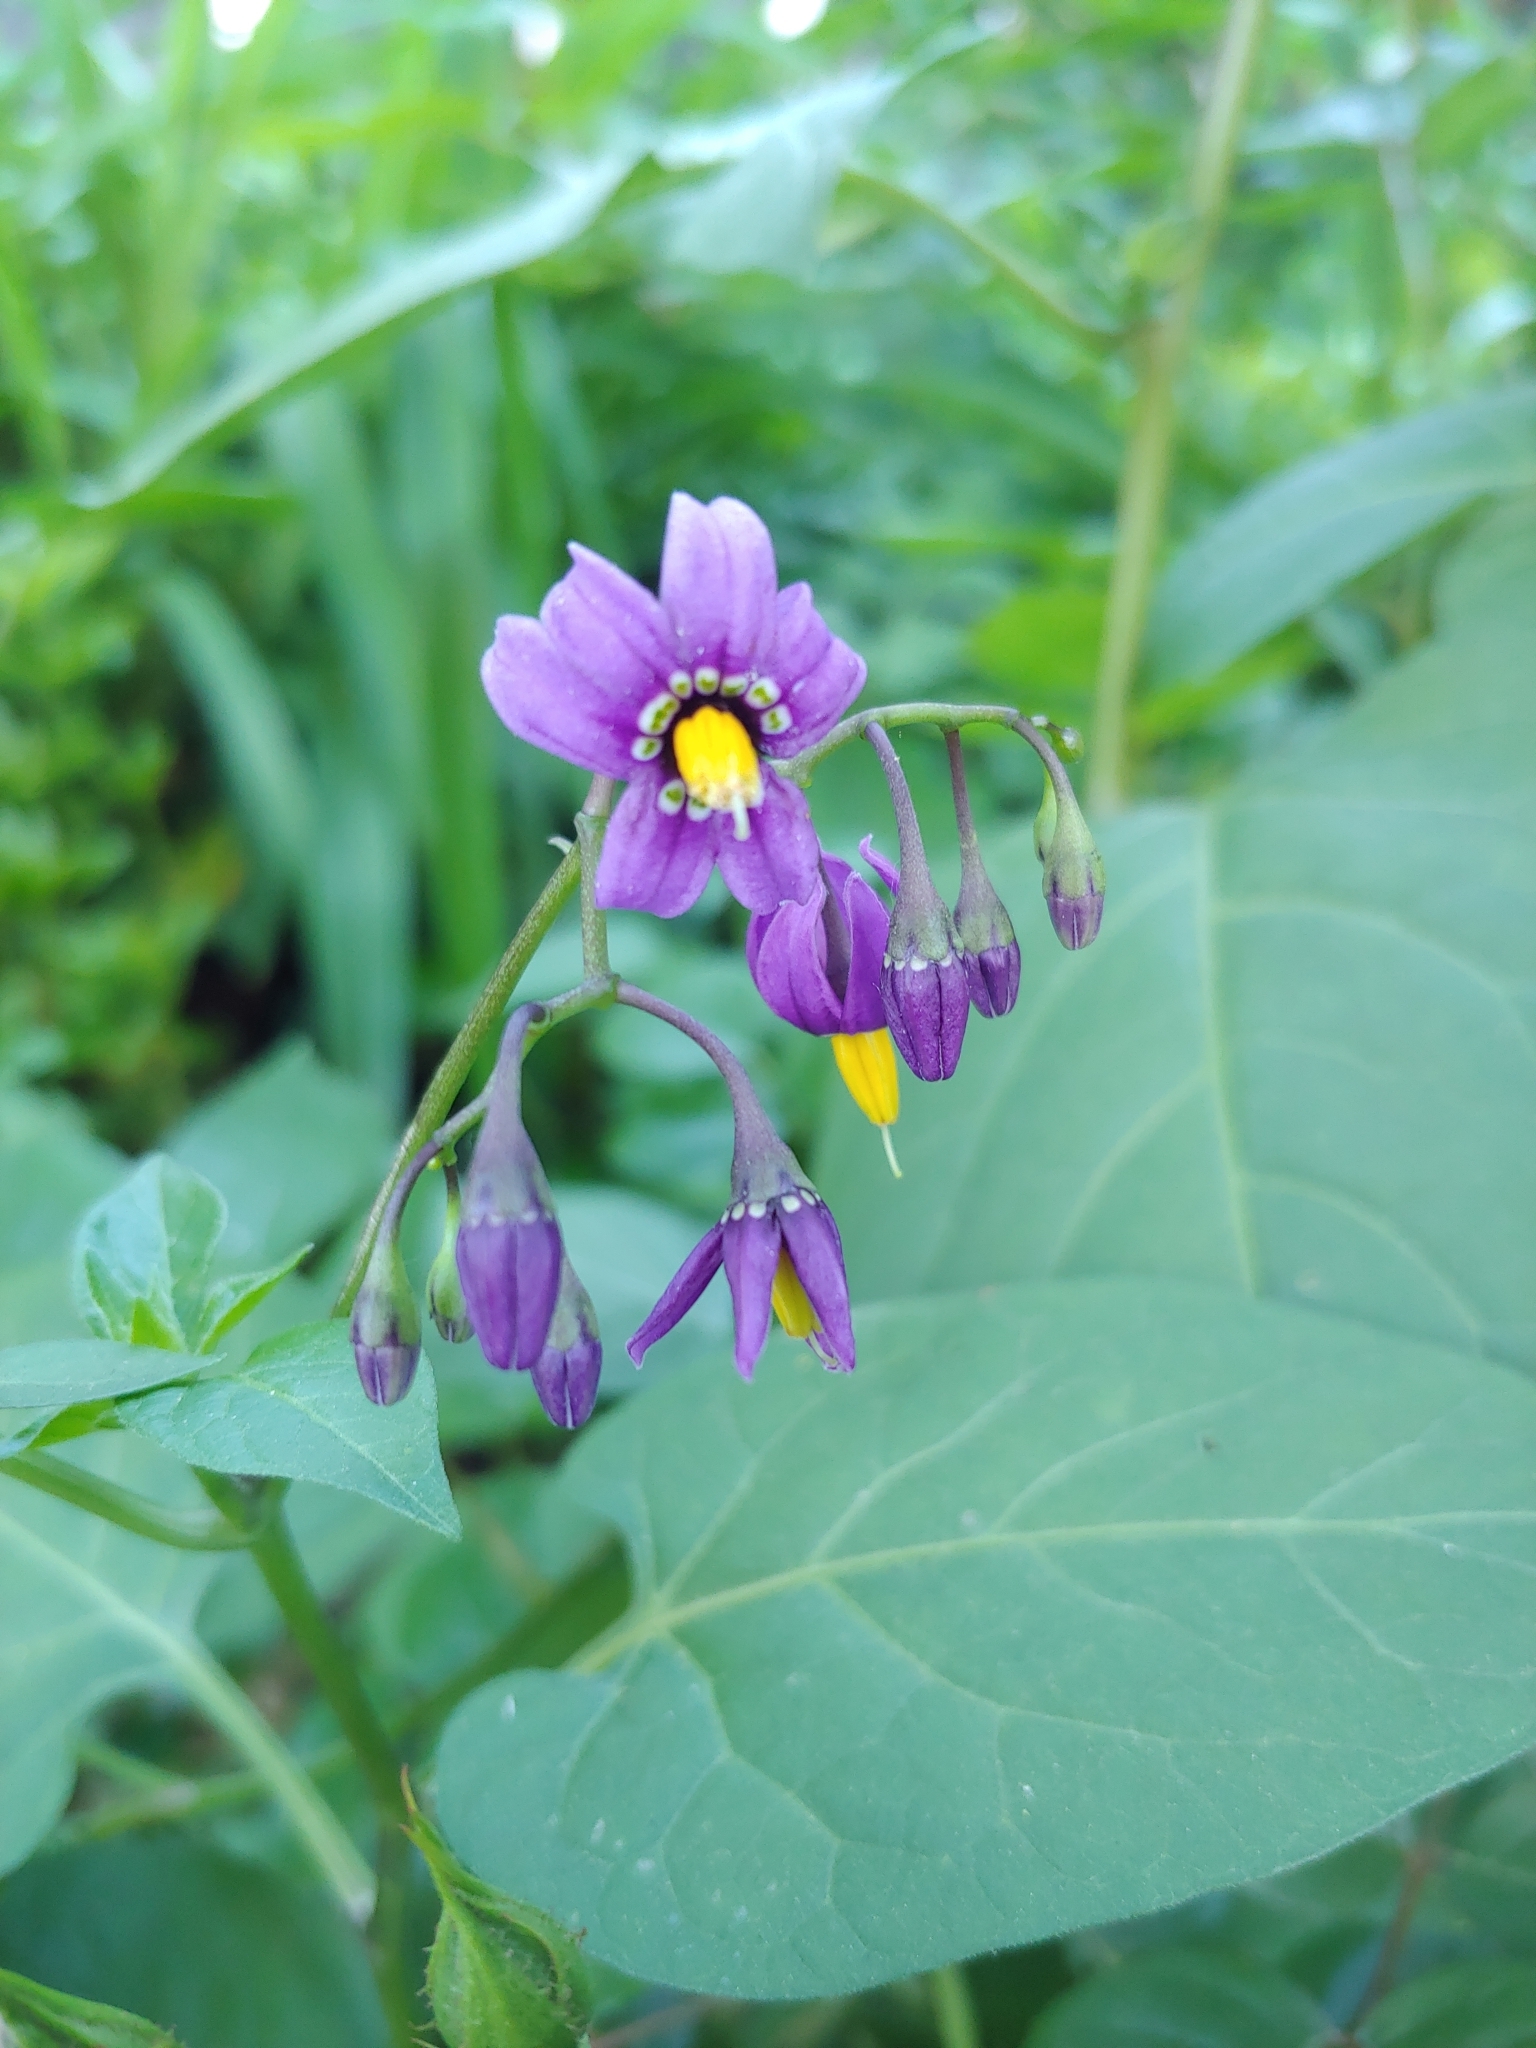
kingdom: Plantae
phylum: Tracheophyta
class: Magnoliopsida
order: Solanales
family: Solanaceae
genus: Solanum
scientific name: Solanum dulcamara
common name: Climbing nightshade
